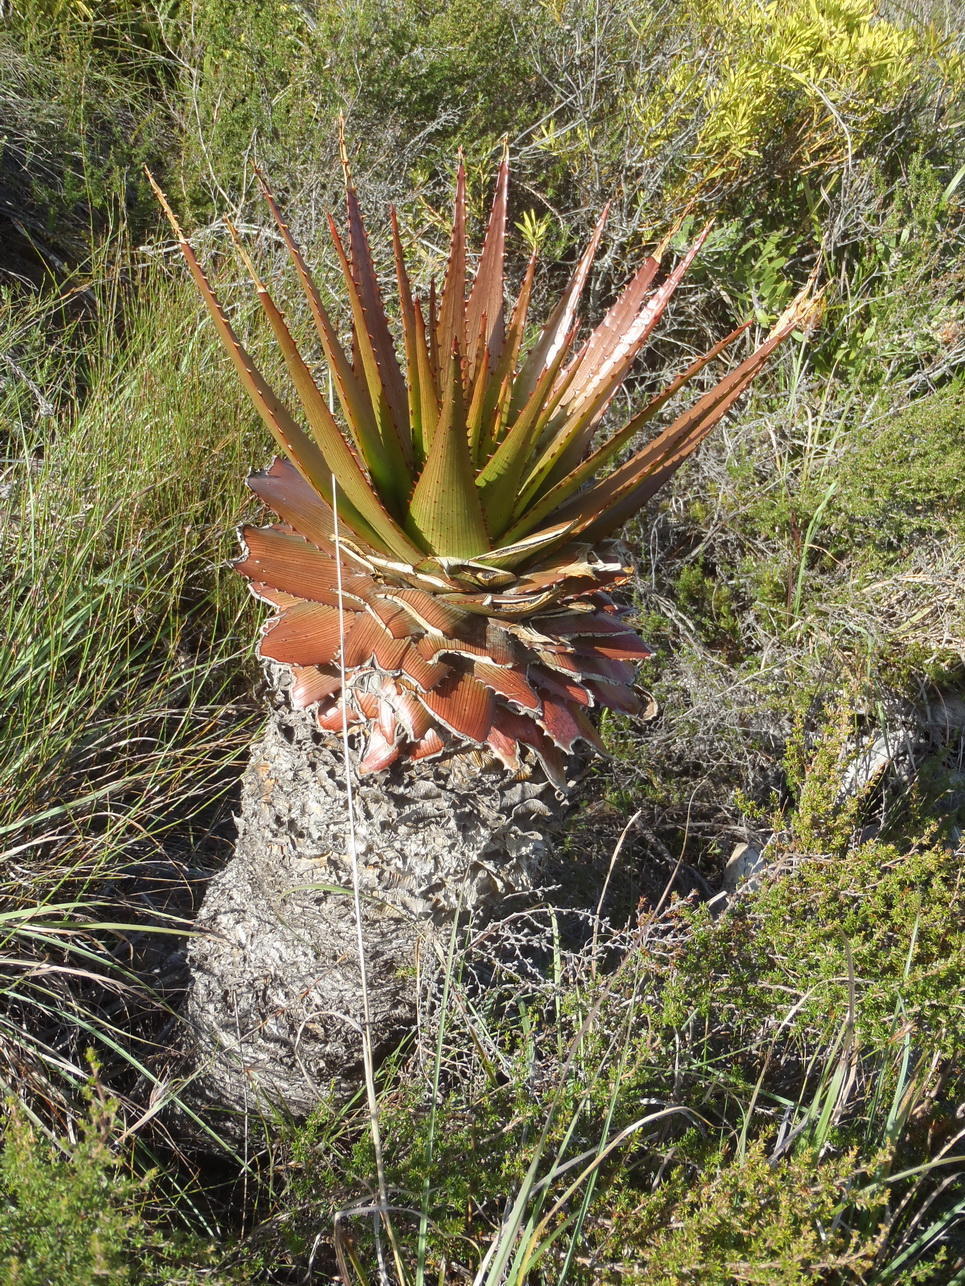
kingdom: Plantae
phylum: Tracheophyta
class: Liliopsida
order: Asparagales
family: Asphodelaceae
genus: Aloe
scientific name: Aloe lineata
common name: Lined red-spined aloe
